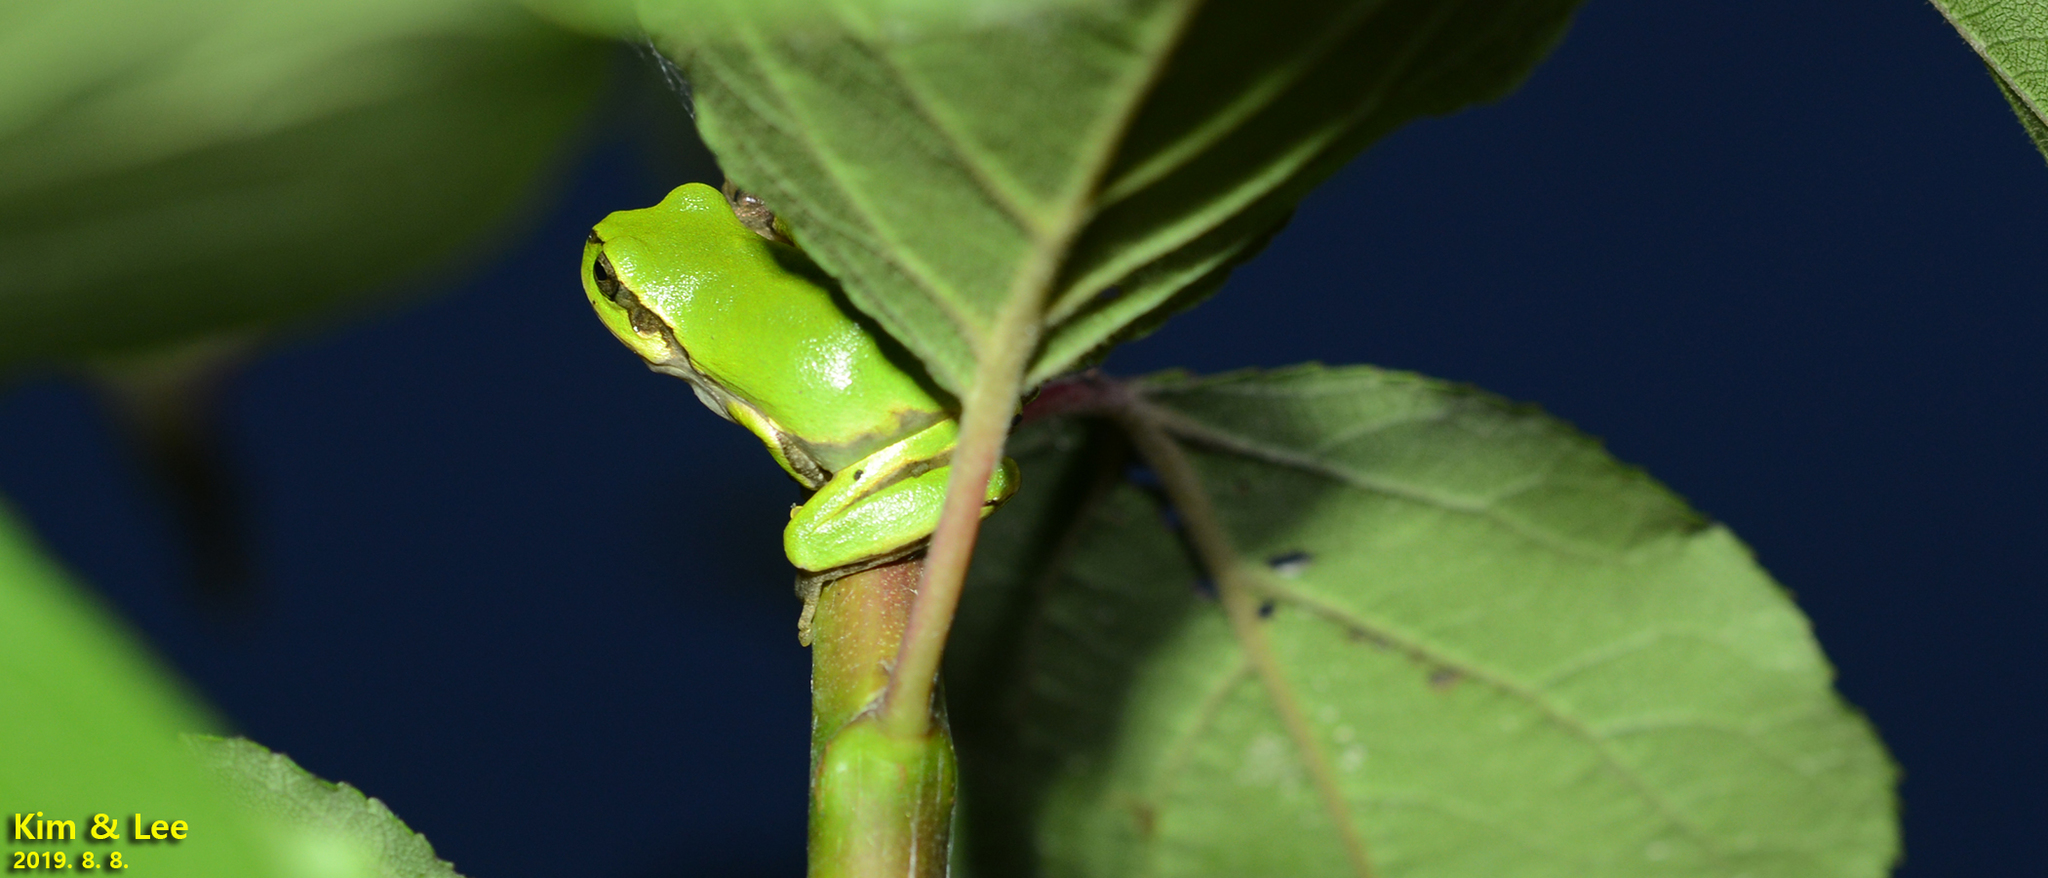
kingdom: Animalia
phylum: Chordata
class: Amphibia
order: Anura
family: Hylidae
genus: Dryophytes
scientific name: Dryophytes japonicus
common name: Japanese treefrog
